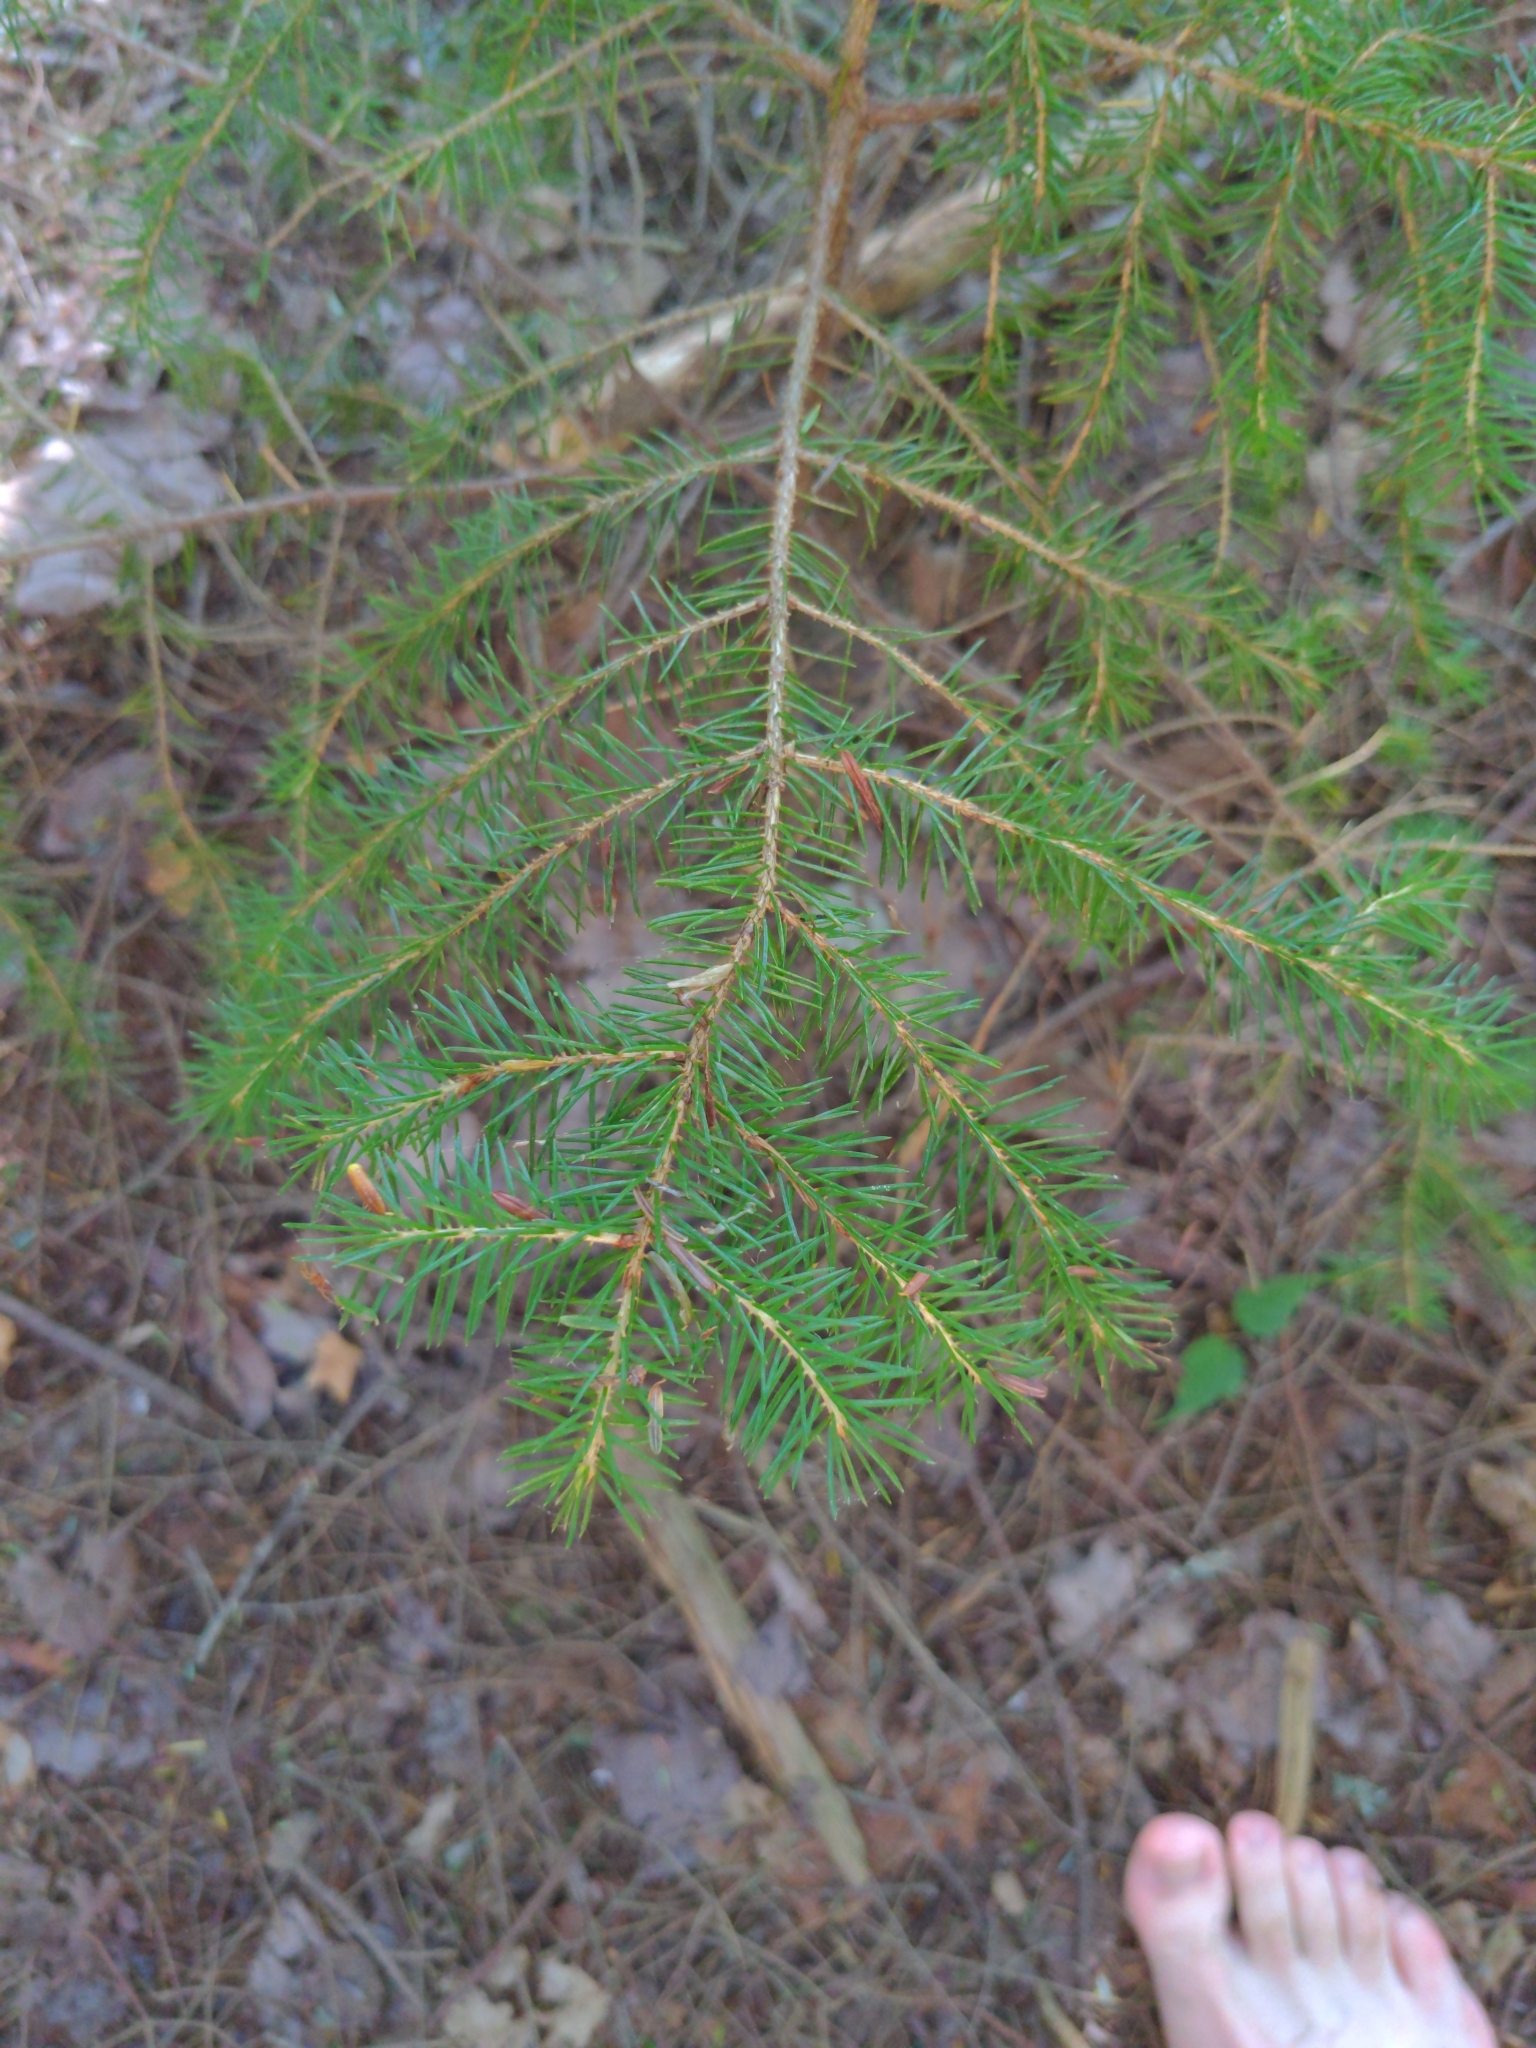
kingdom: Plantae
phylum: Tracheophyta
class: Pinopsida
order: Pinales
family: Pinaceae
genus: Picea
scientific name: Picea rubens
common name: Red spruce
